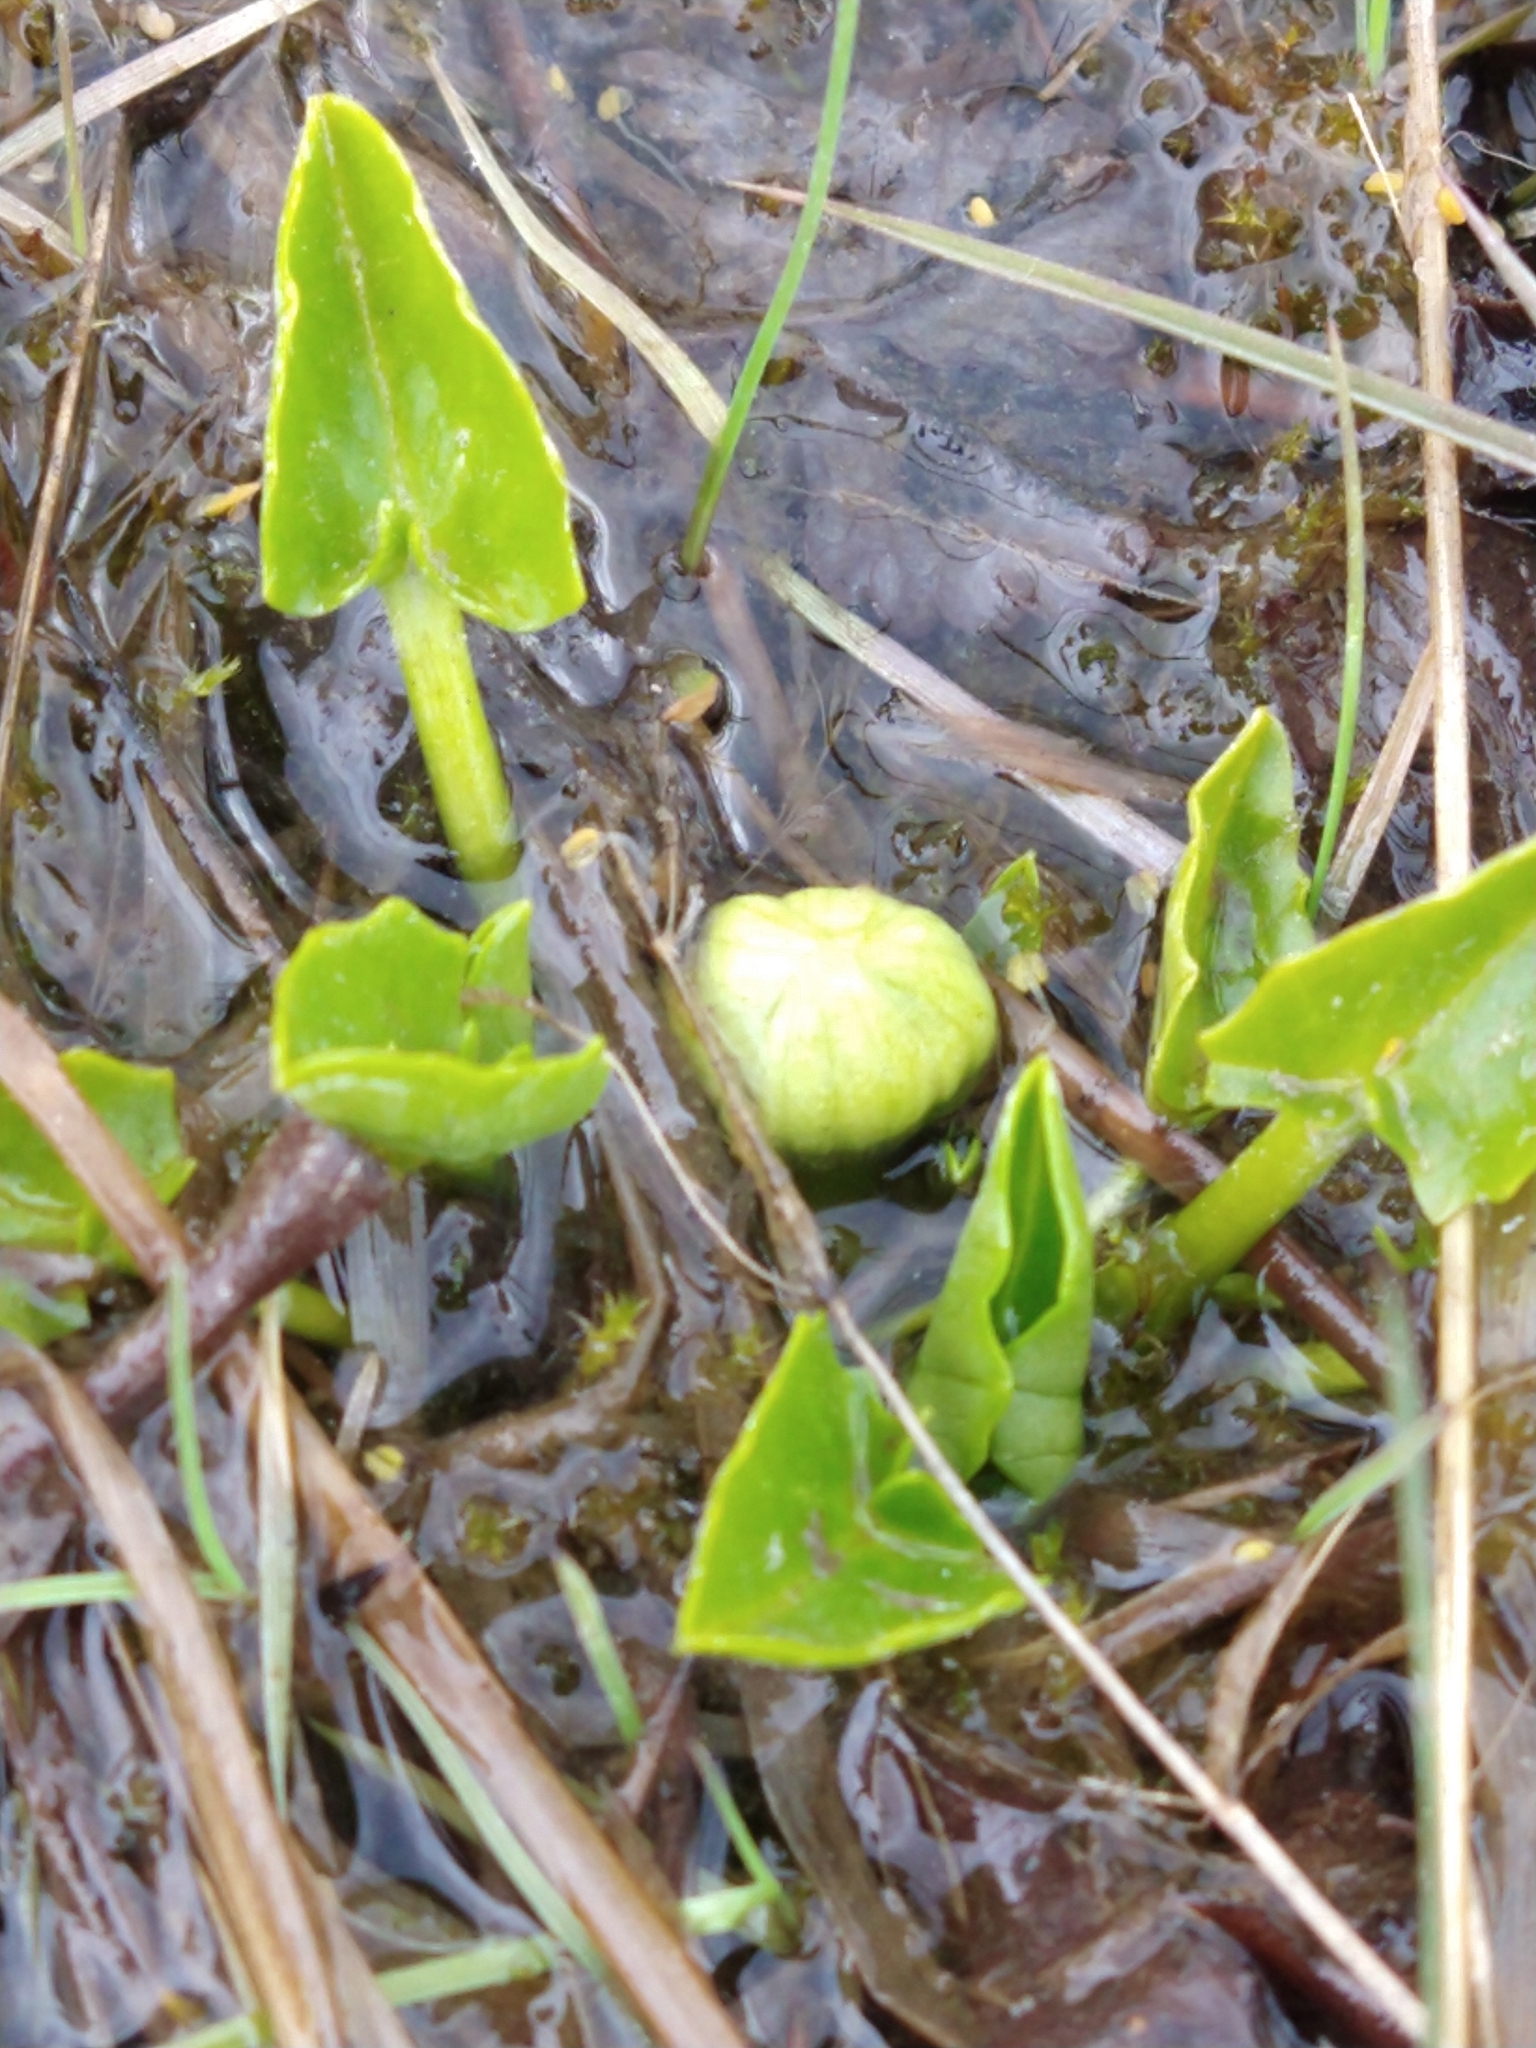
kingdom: Plantae
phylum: Tracheophyta
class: Magnoliopsida
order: Ranunculales
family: Ranunculaceae
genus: Caltha
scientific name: Caltha sagittata
